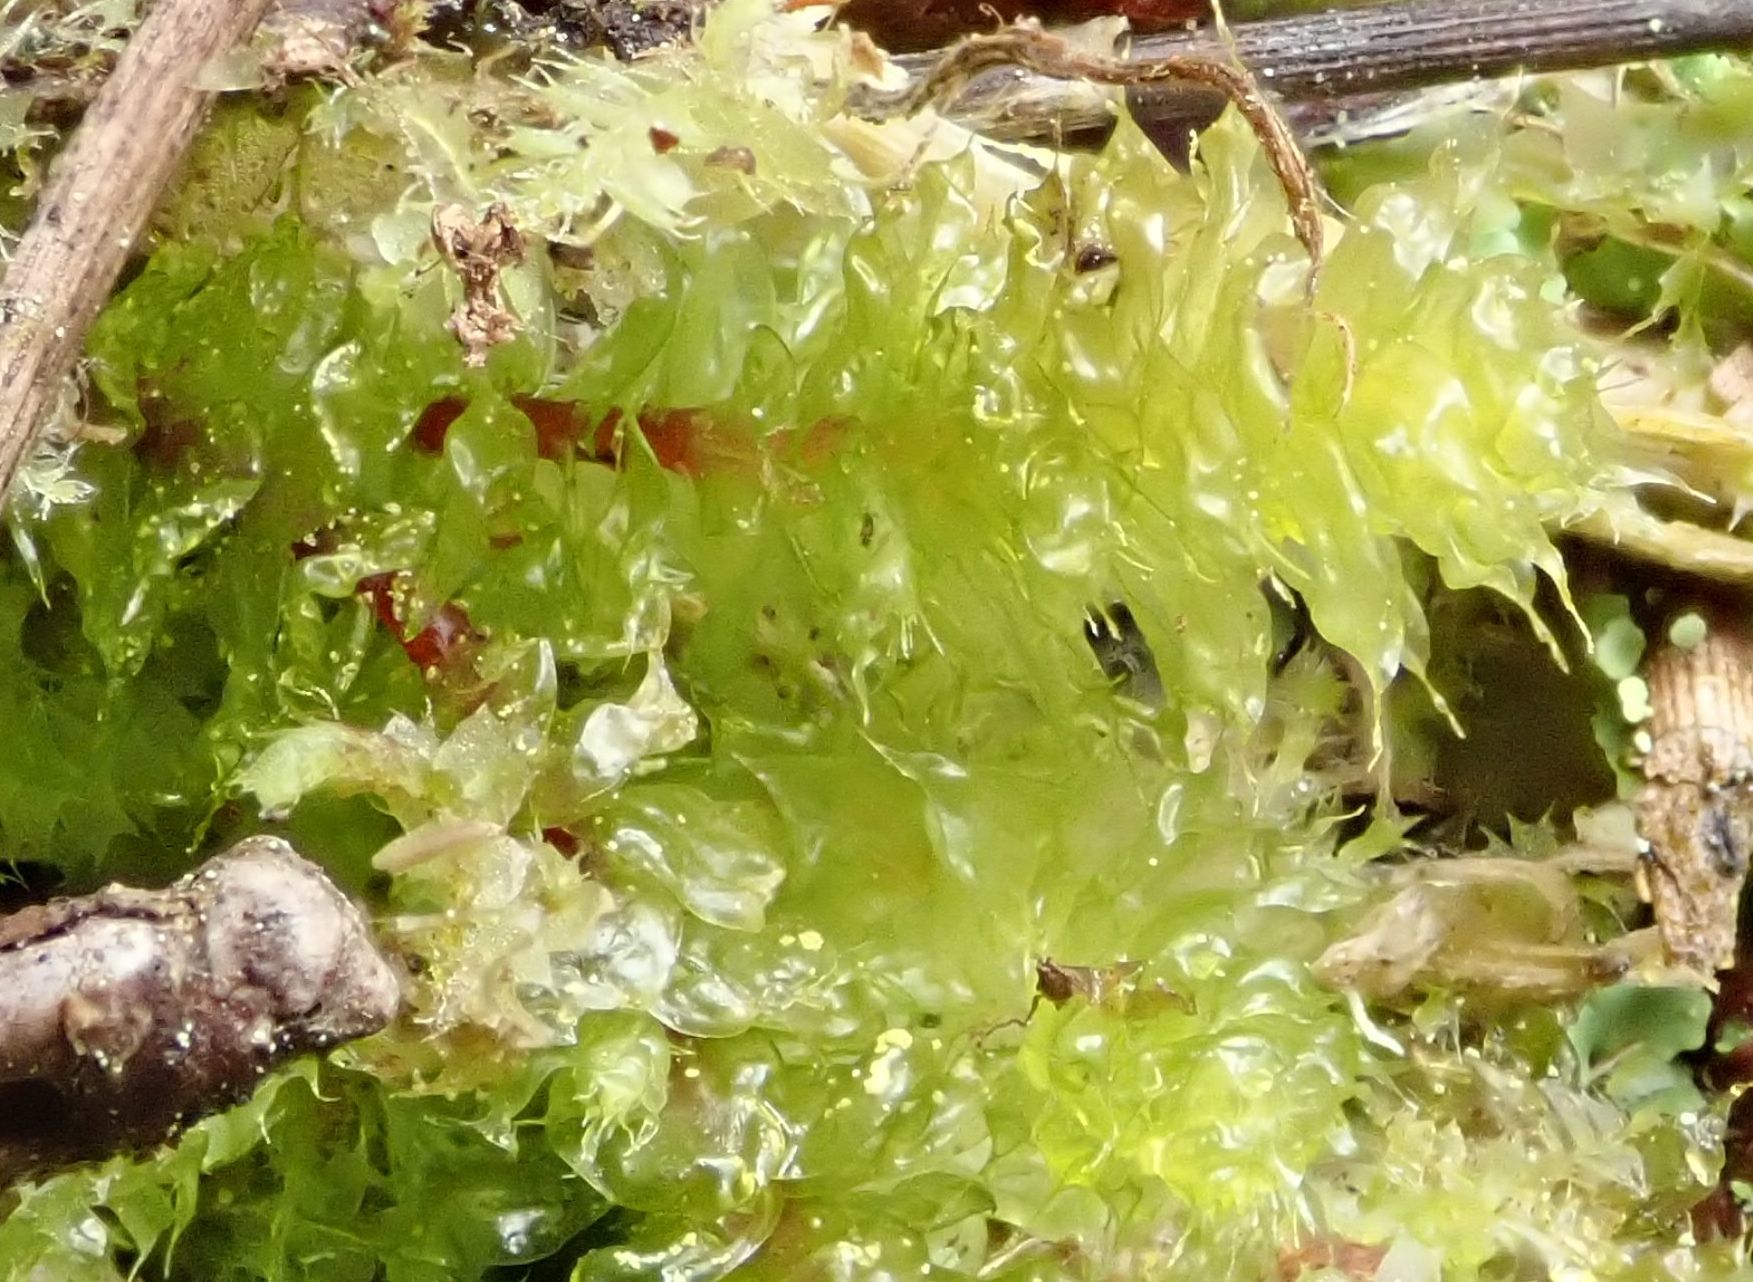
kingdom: Plantae
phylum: Bryophyta
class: Bryopsida
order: Ptychomniales
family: Ptychomniaceae
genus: Ptychomnion
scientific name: Ptychomnion aciculare
